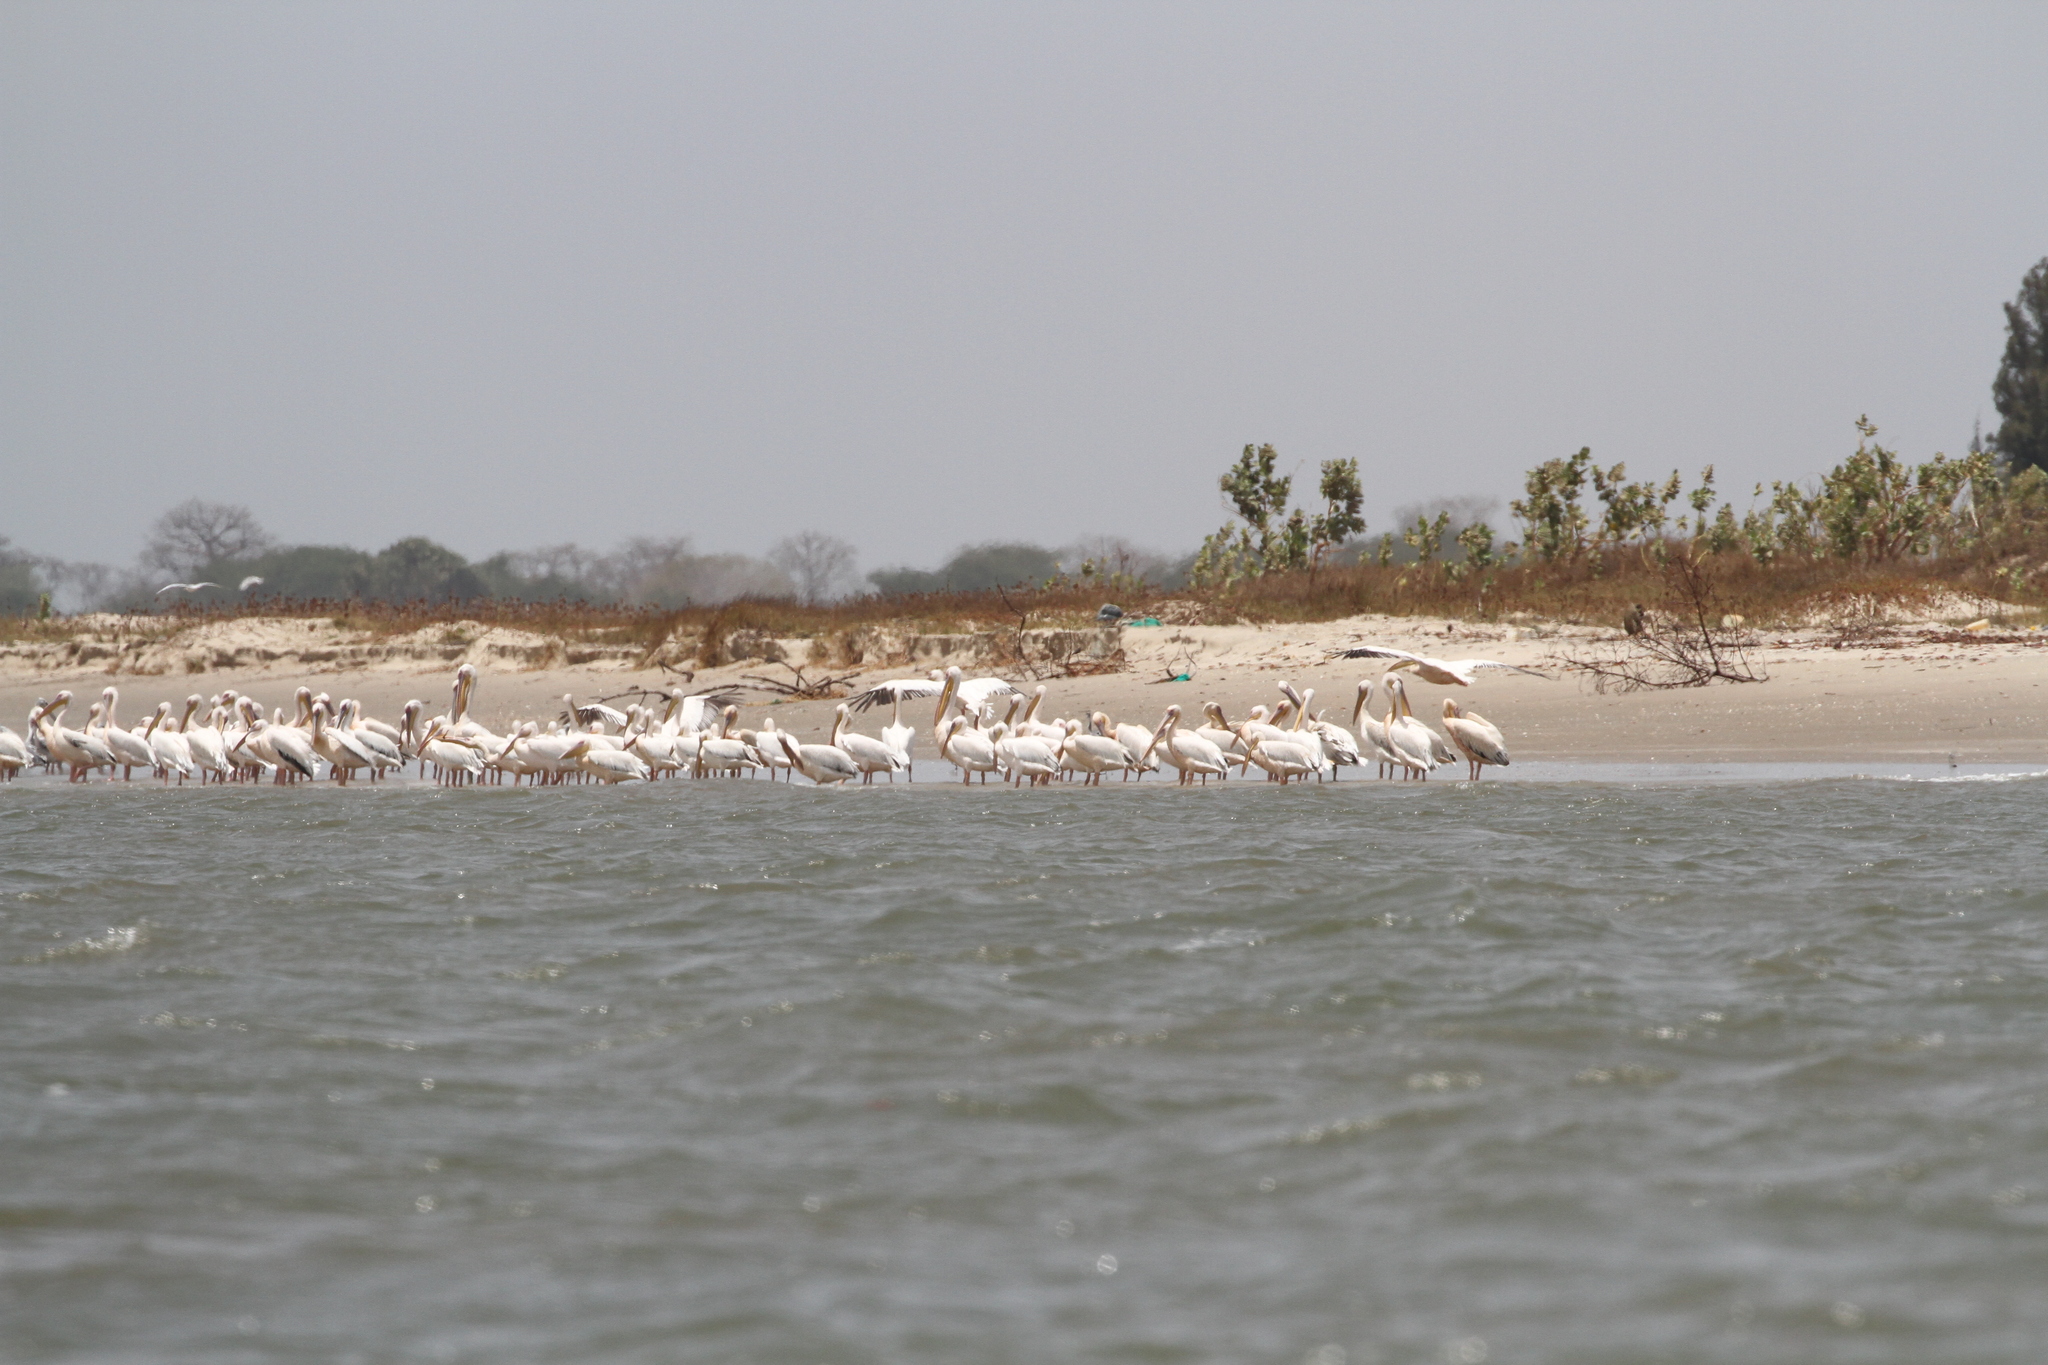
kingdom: Animalia
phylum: Chordata
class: Aves
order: Pelecaniformes
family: Pelecanidae
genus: Pelecanus
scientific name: Pelecanus onocrotalus
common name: Great white pelican
